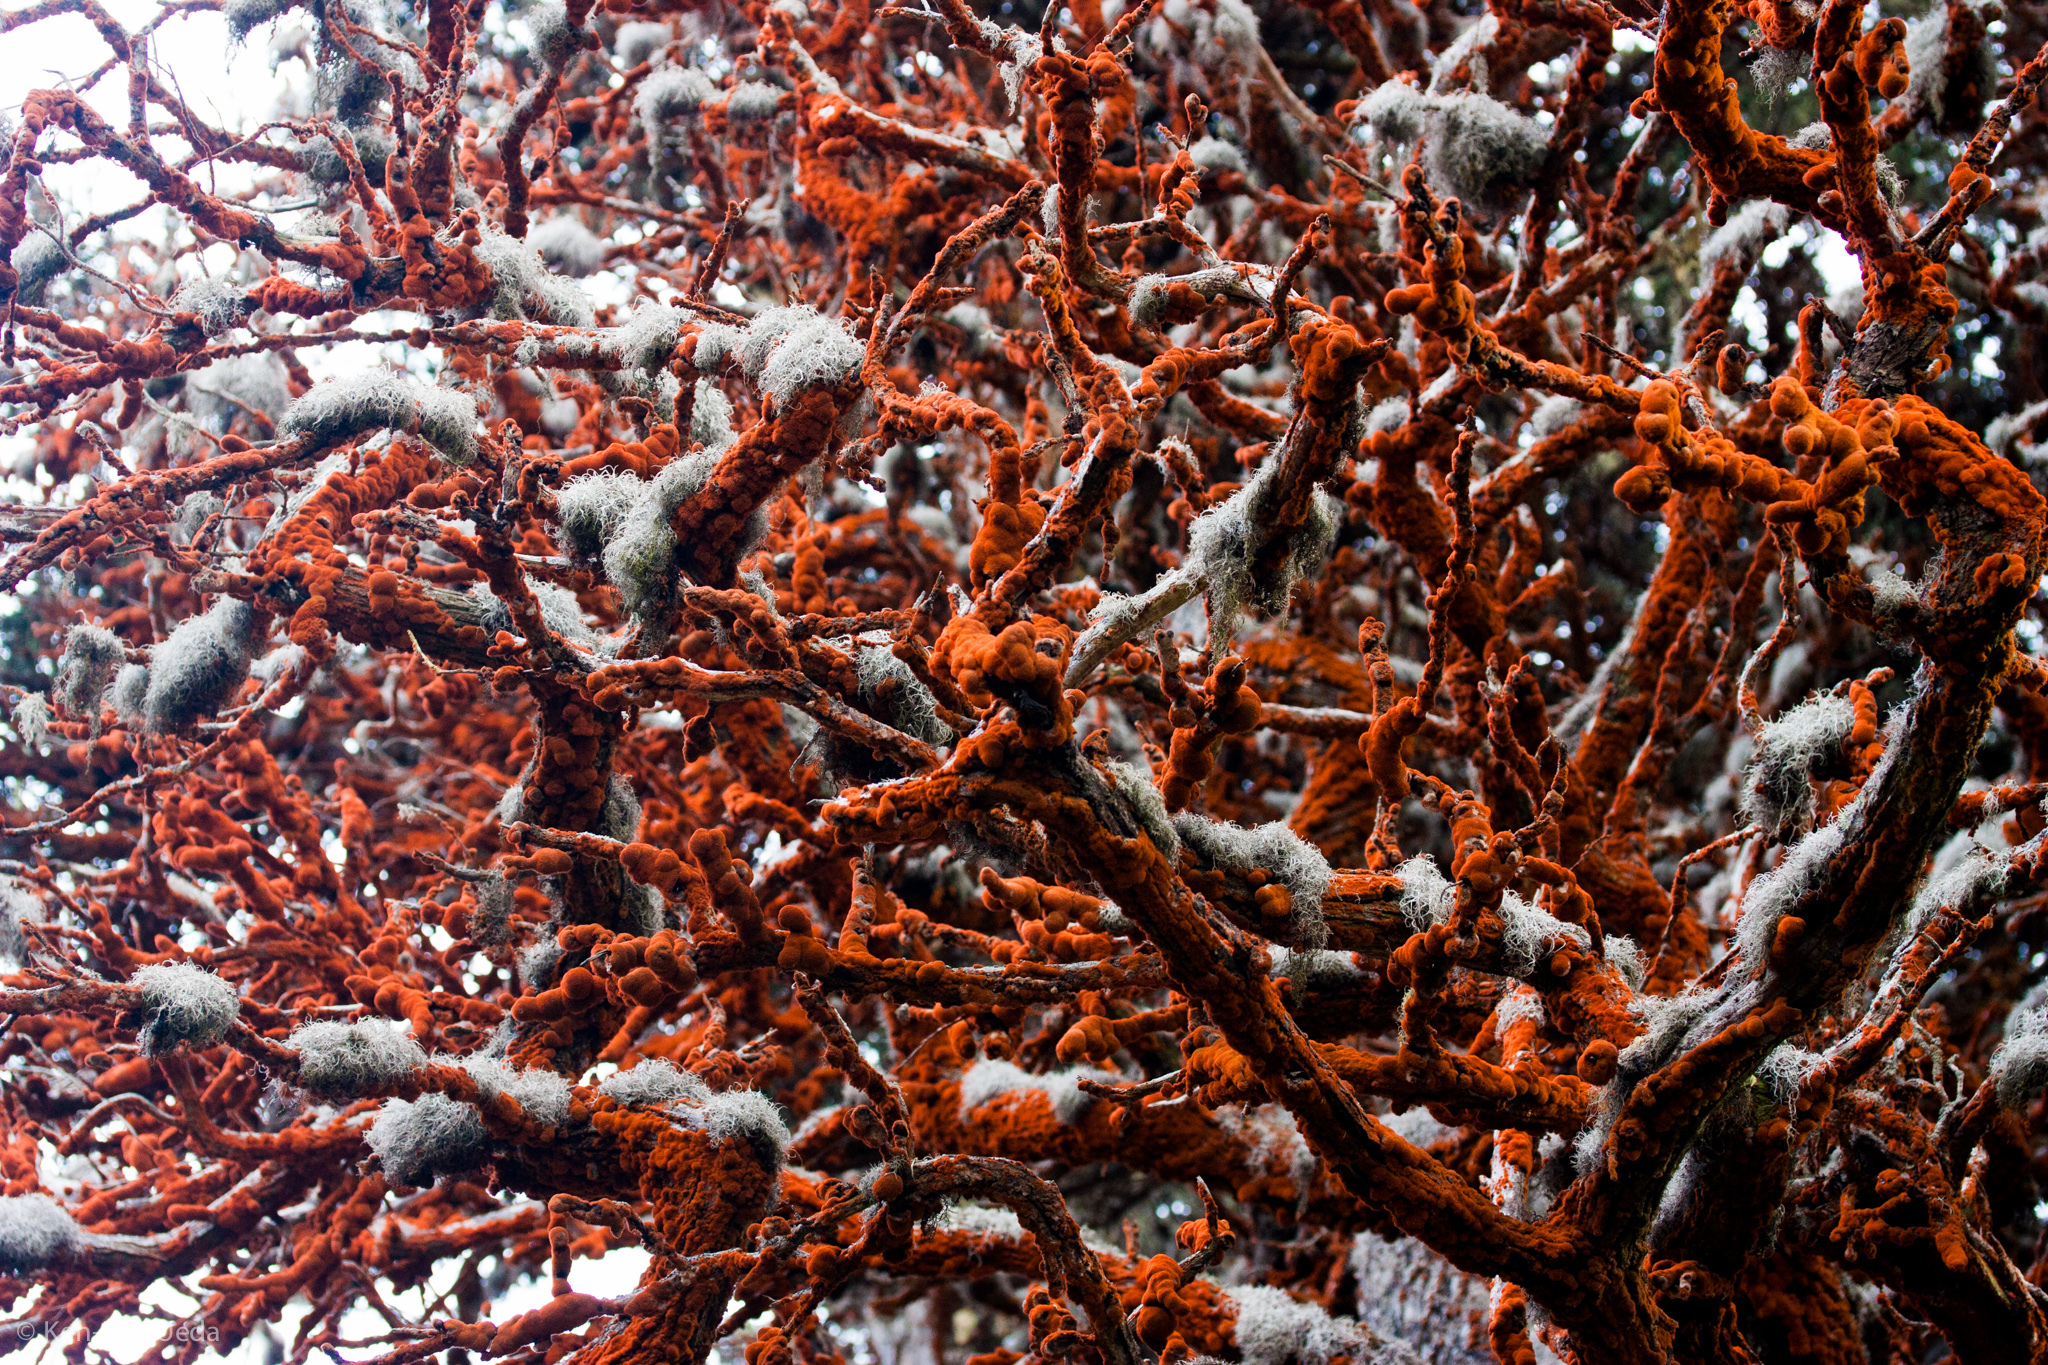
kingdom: Plantae
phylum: Chlorophyta
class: Ulvophyceae
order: Trentepohliales
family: Trentepohliaceae
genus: Trentepohlia
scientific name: Trentepohlia aurea
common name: Orange rock hair
